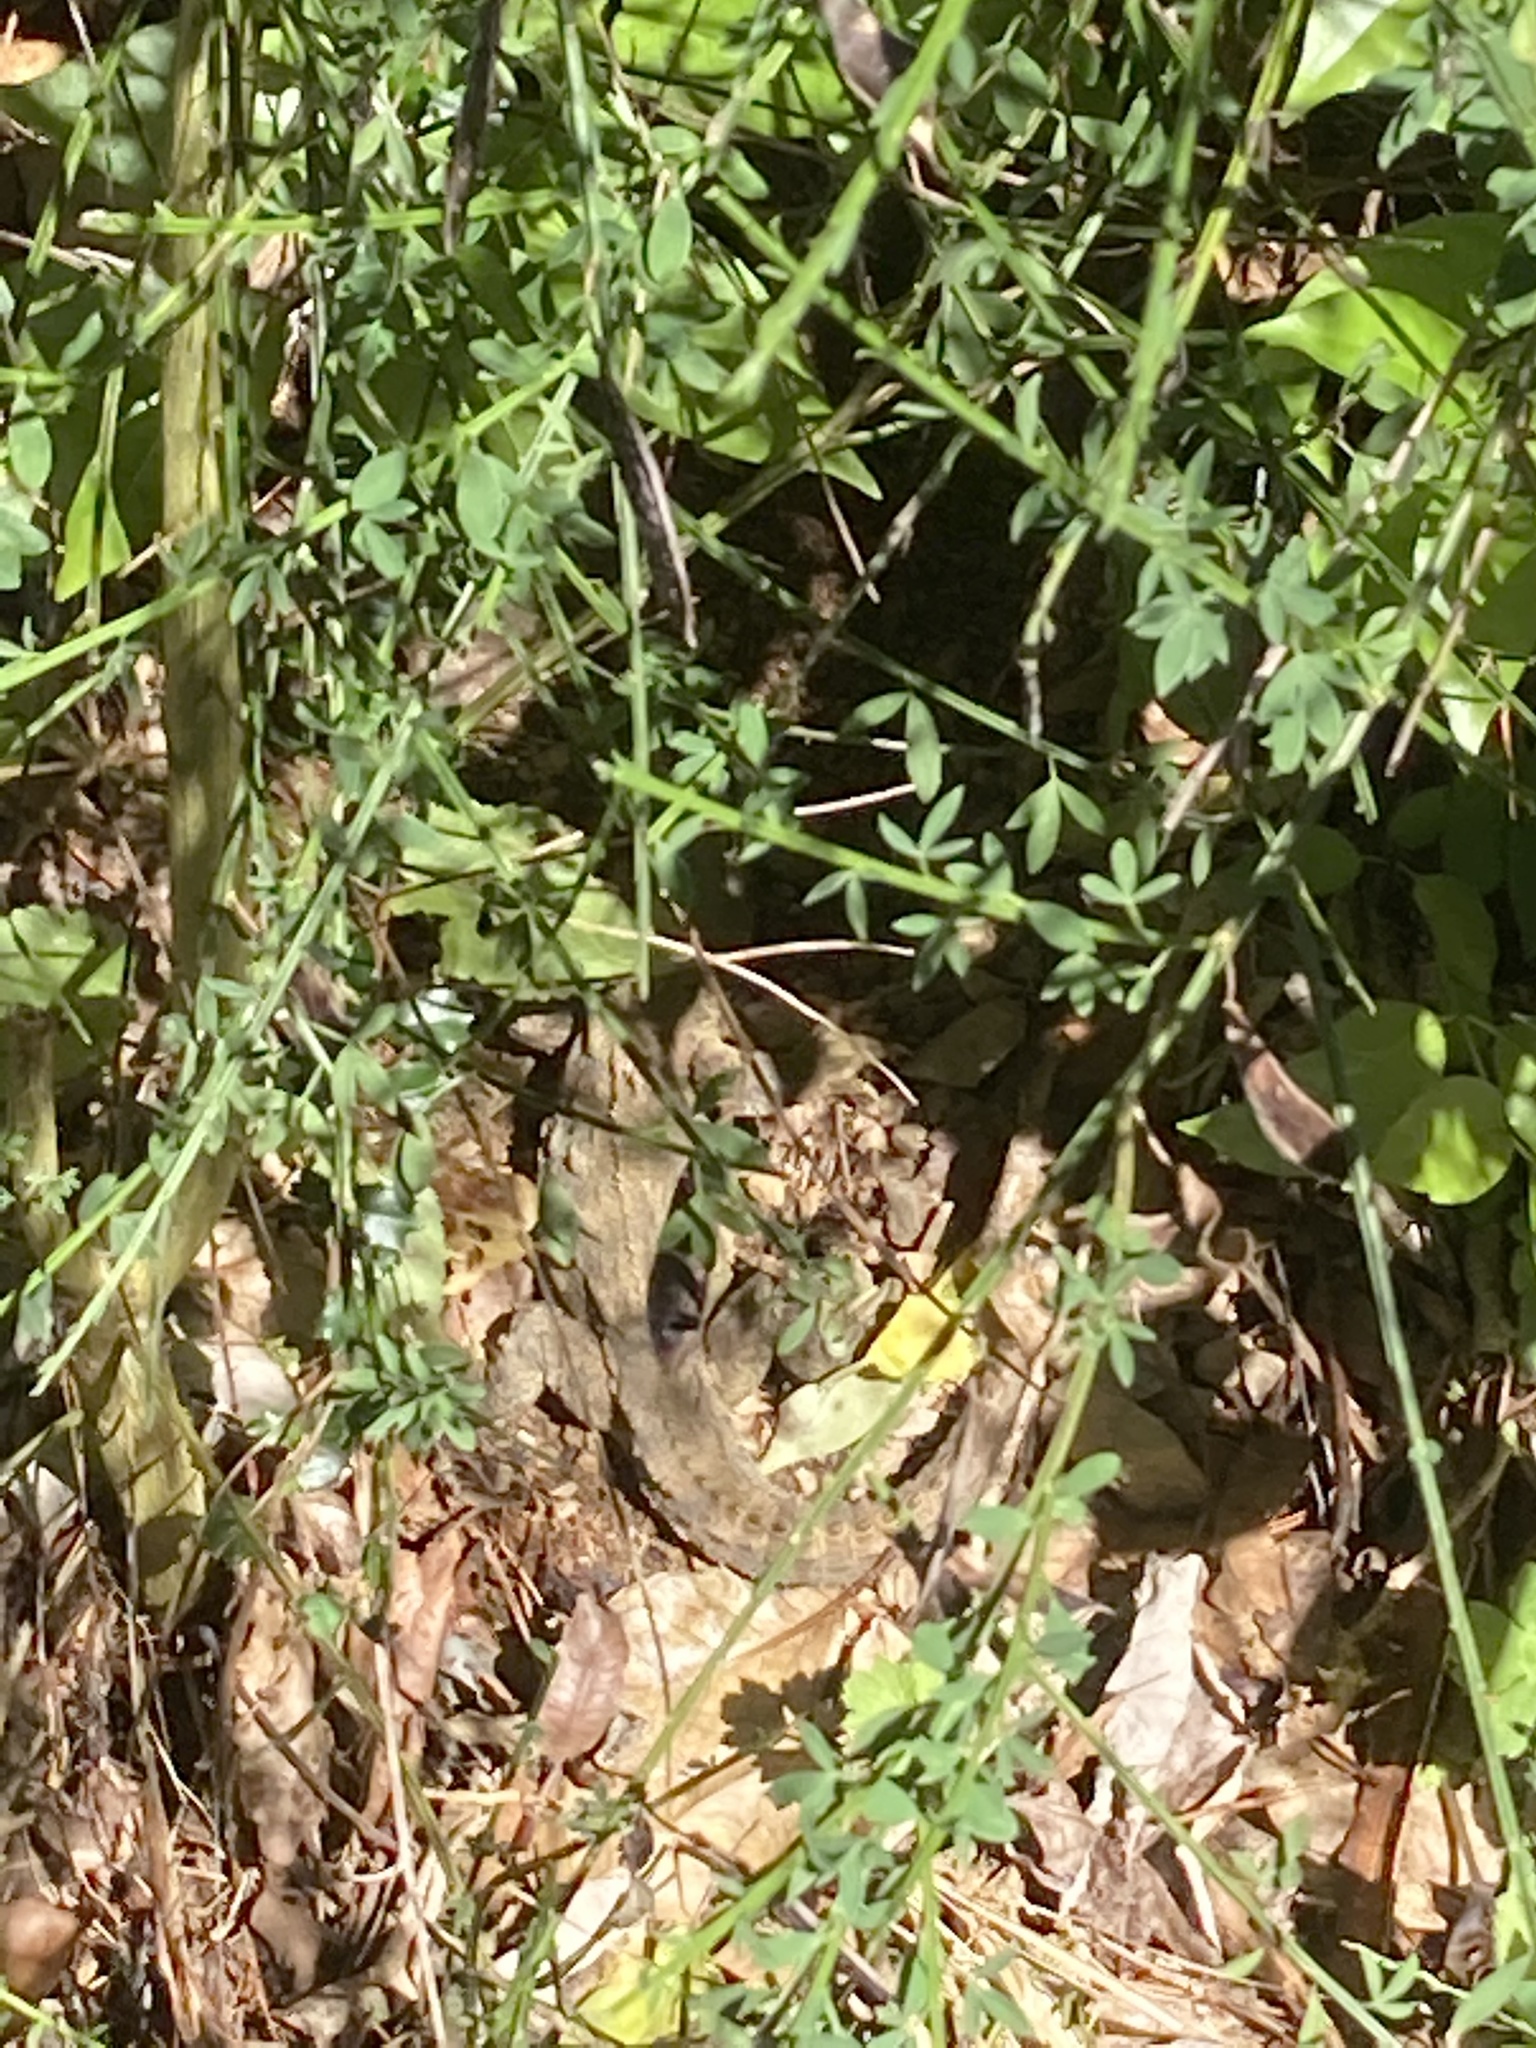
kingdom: Animalia
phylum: Chordata
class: Sphenodontia
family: Sphenodontidae
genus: Sphenodon
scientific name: Sphenodon punctatus
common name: Tuatara
